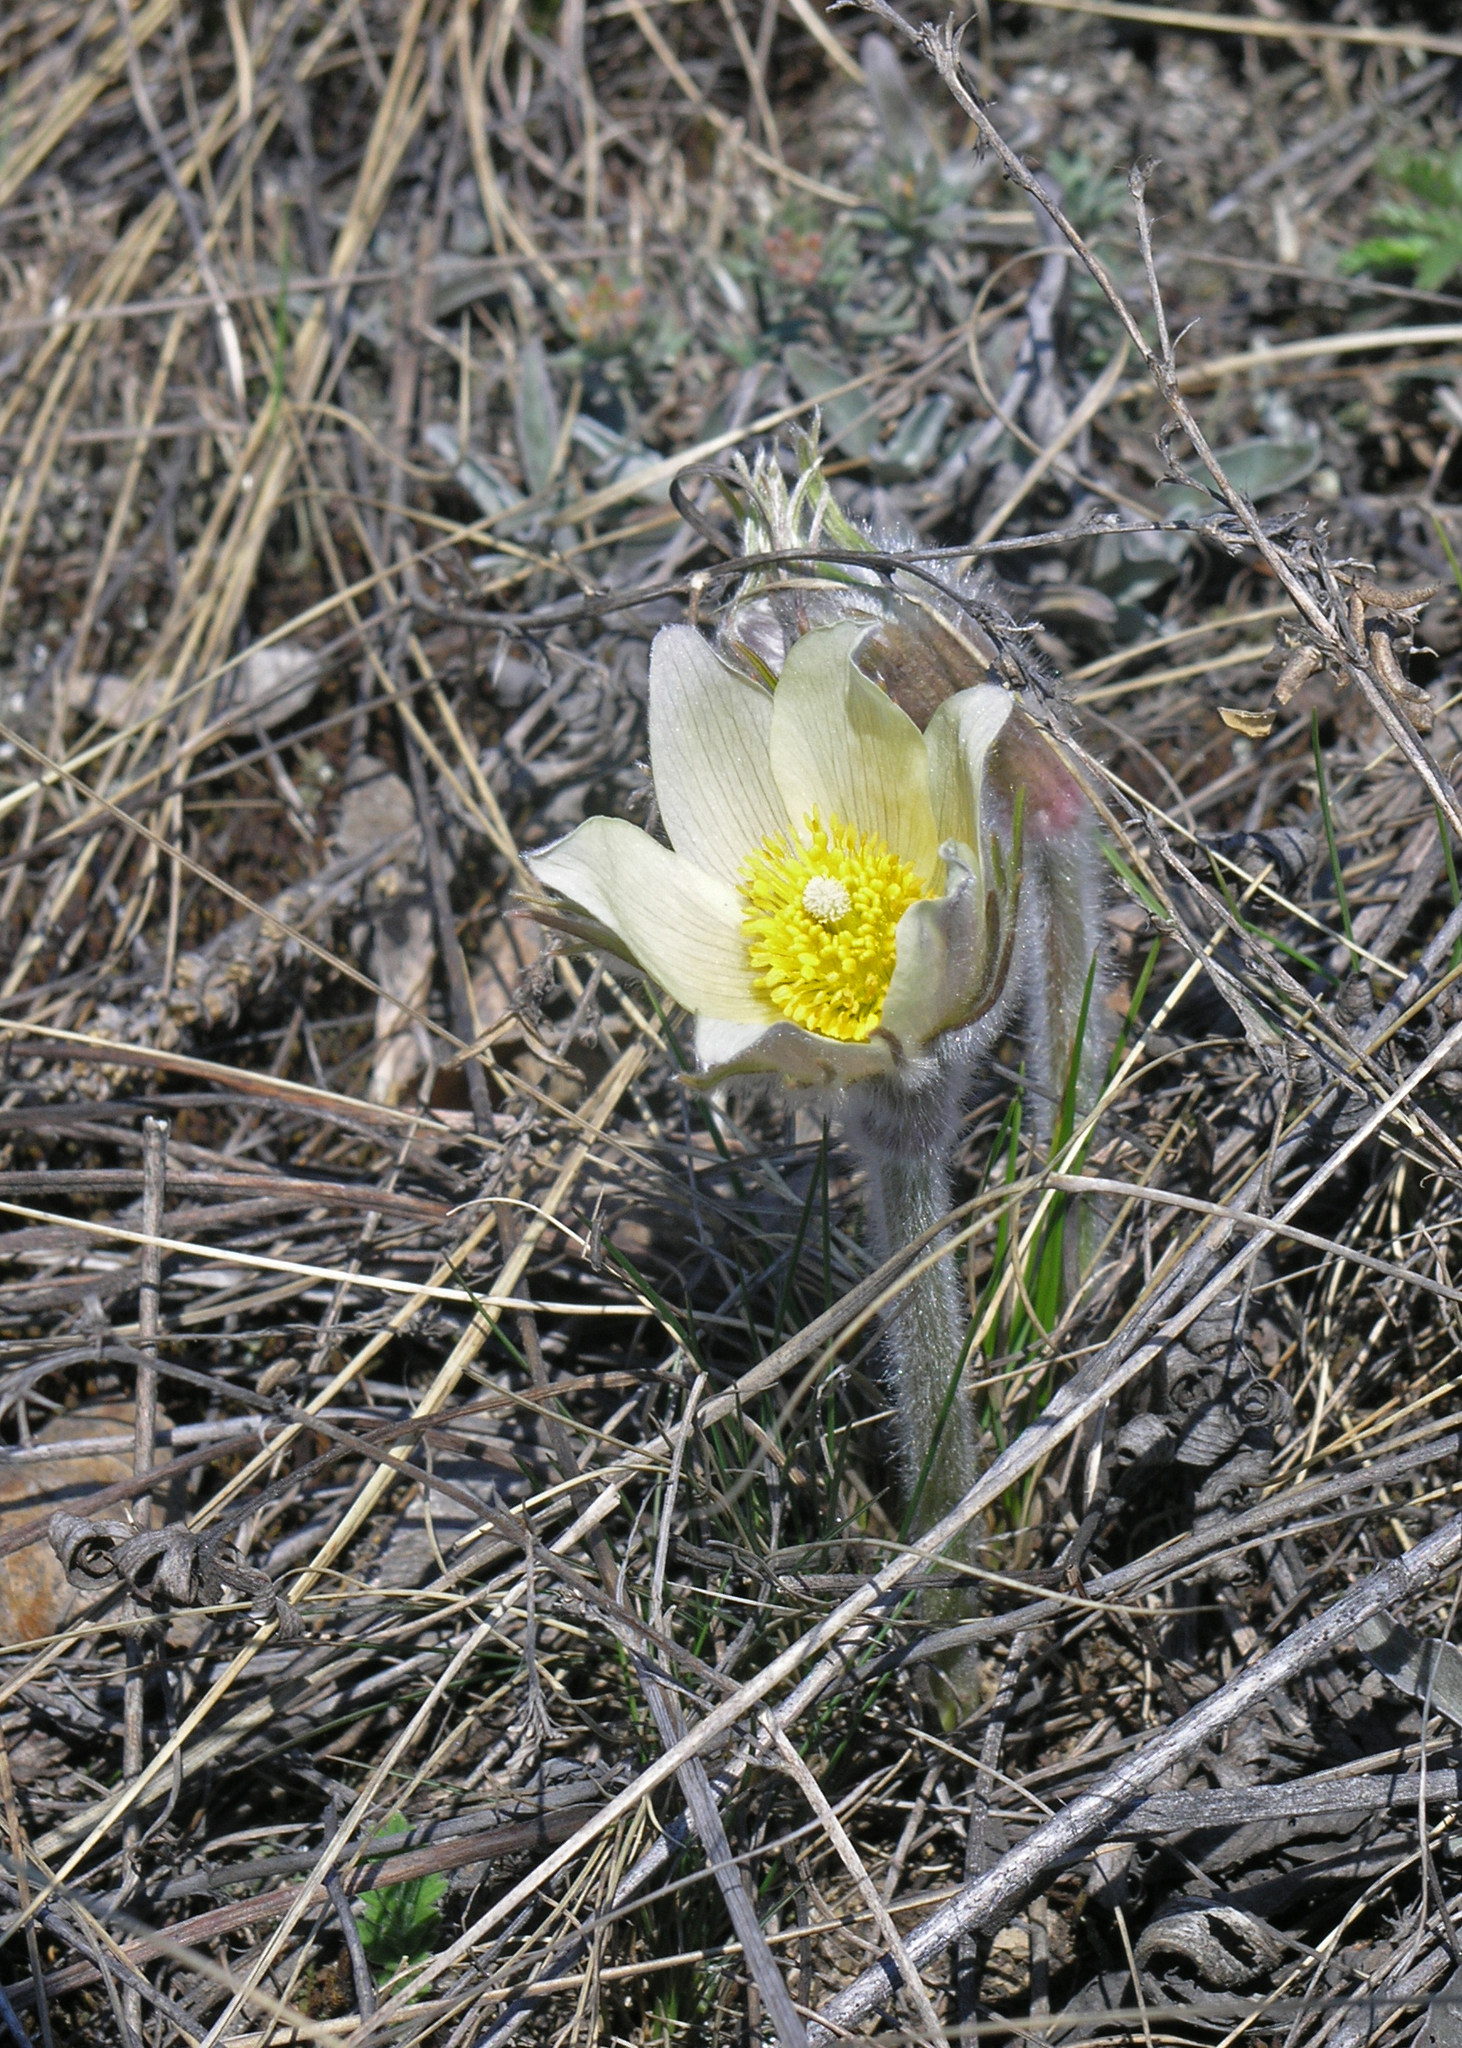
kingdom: Plantae
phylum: Tracheophyta
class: Magnoliopsida
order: Ranunculales
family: Ranunculaceae
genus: Pulsatilla
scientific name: Pulsatilla patens
